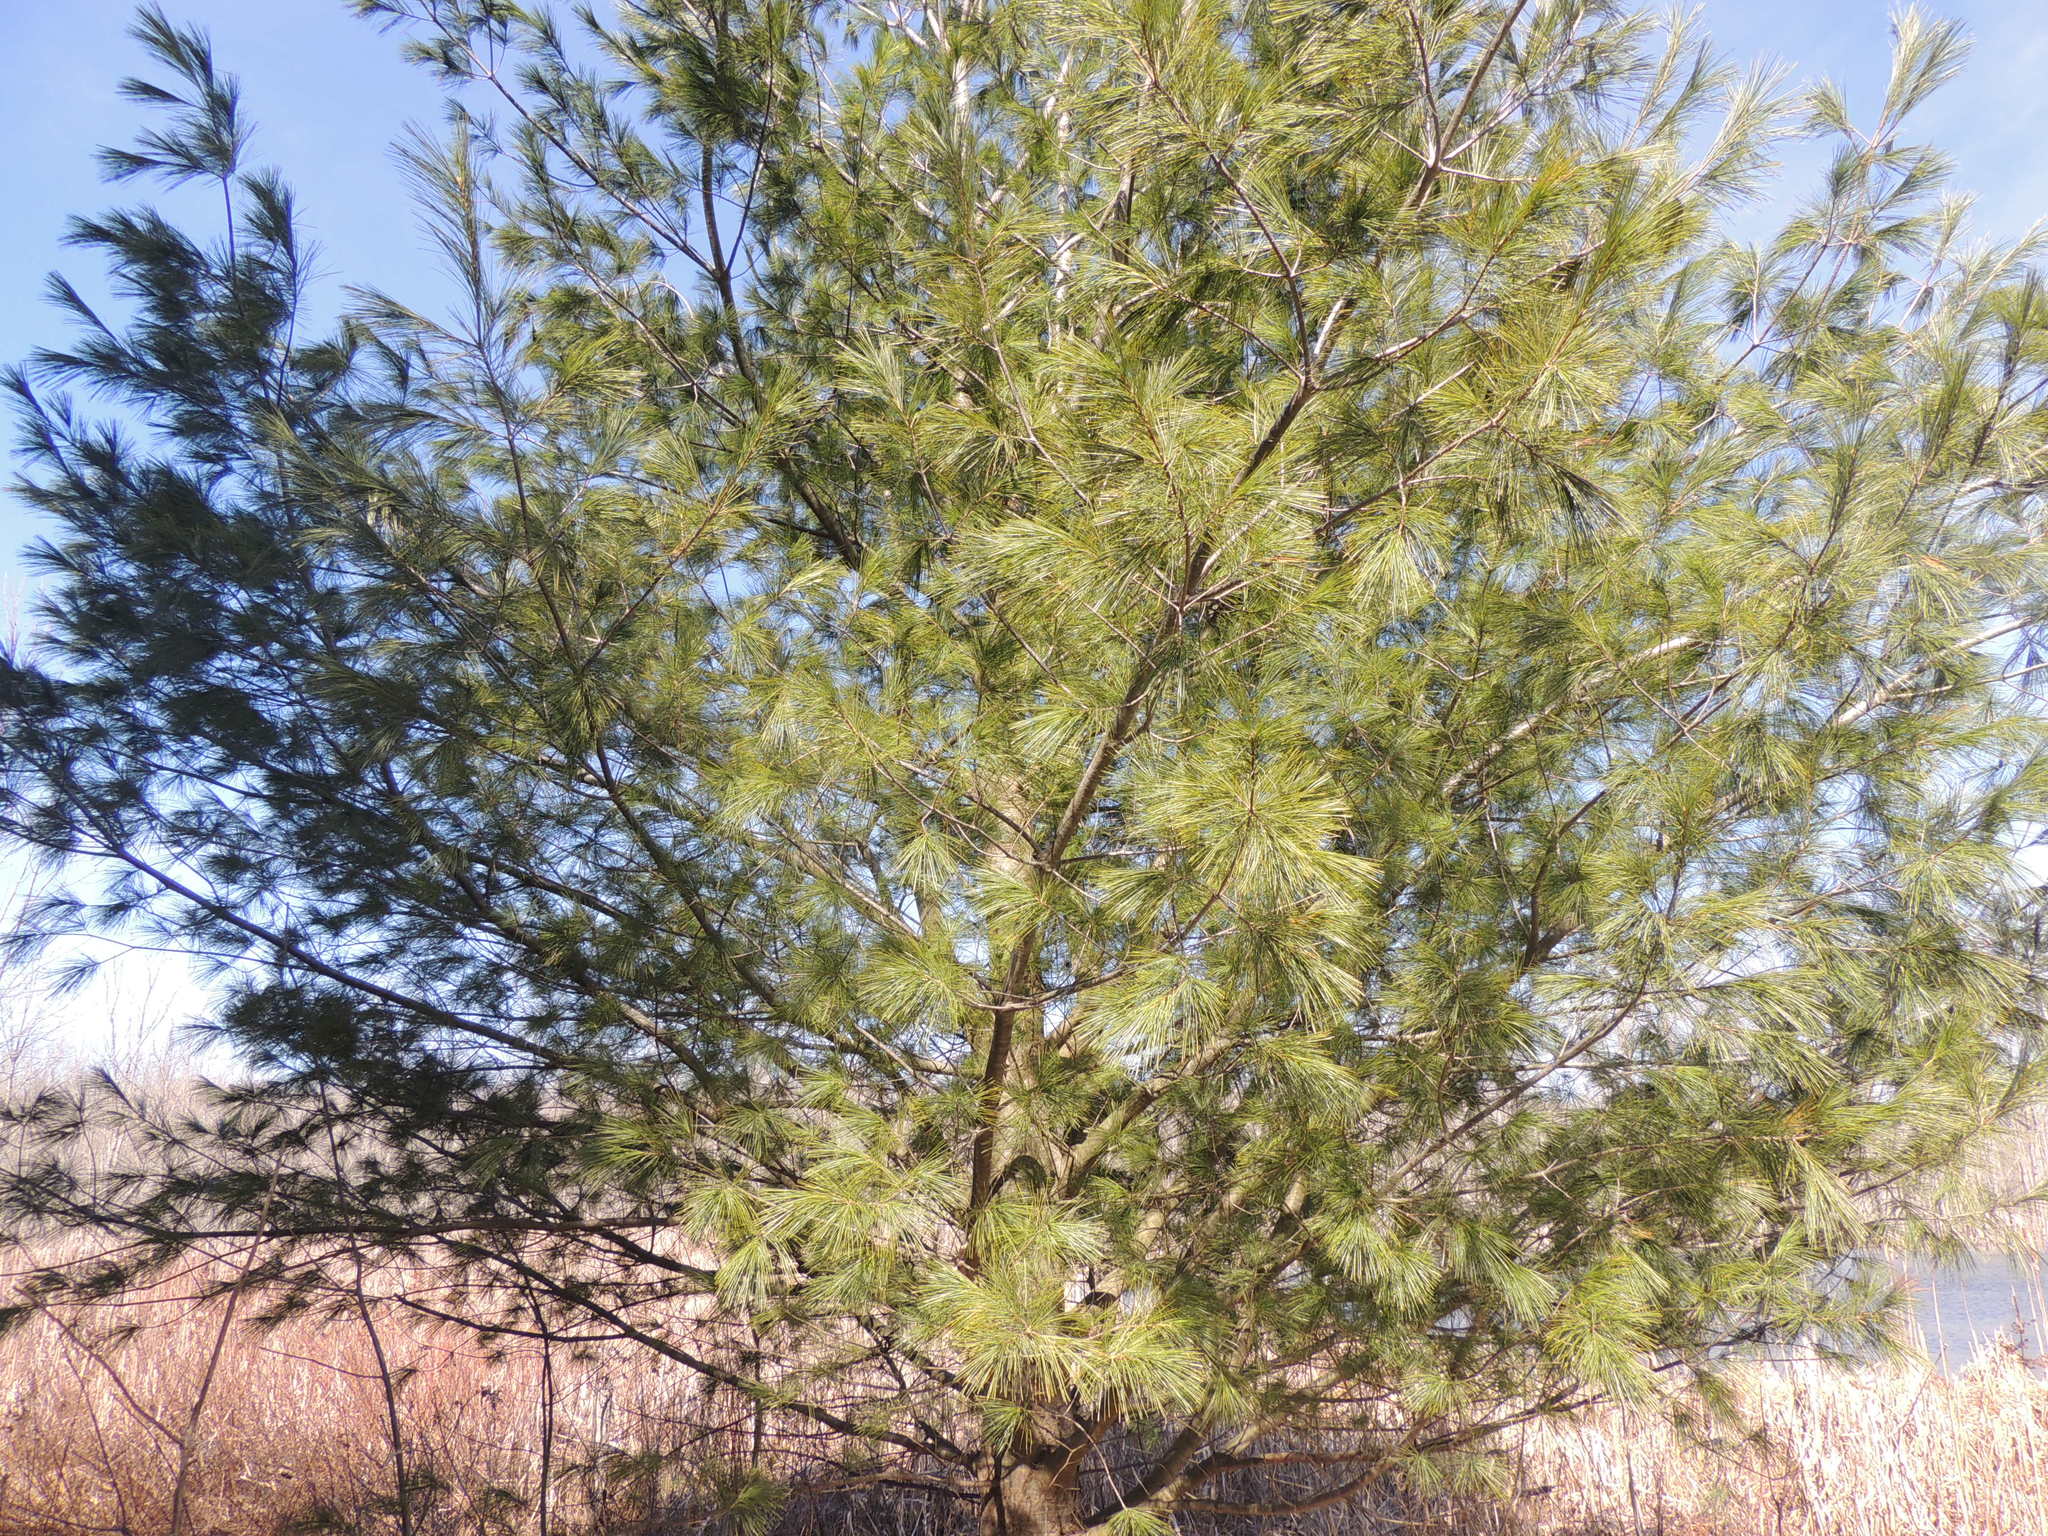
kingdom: Plantae
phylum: Tracheophyta
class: Pinopsida
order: Pinales
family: Pinaceae
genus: Pinus
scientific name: Pinus strobus
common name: Weymouth pine
